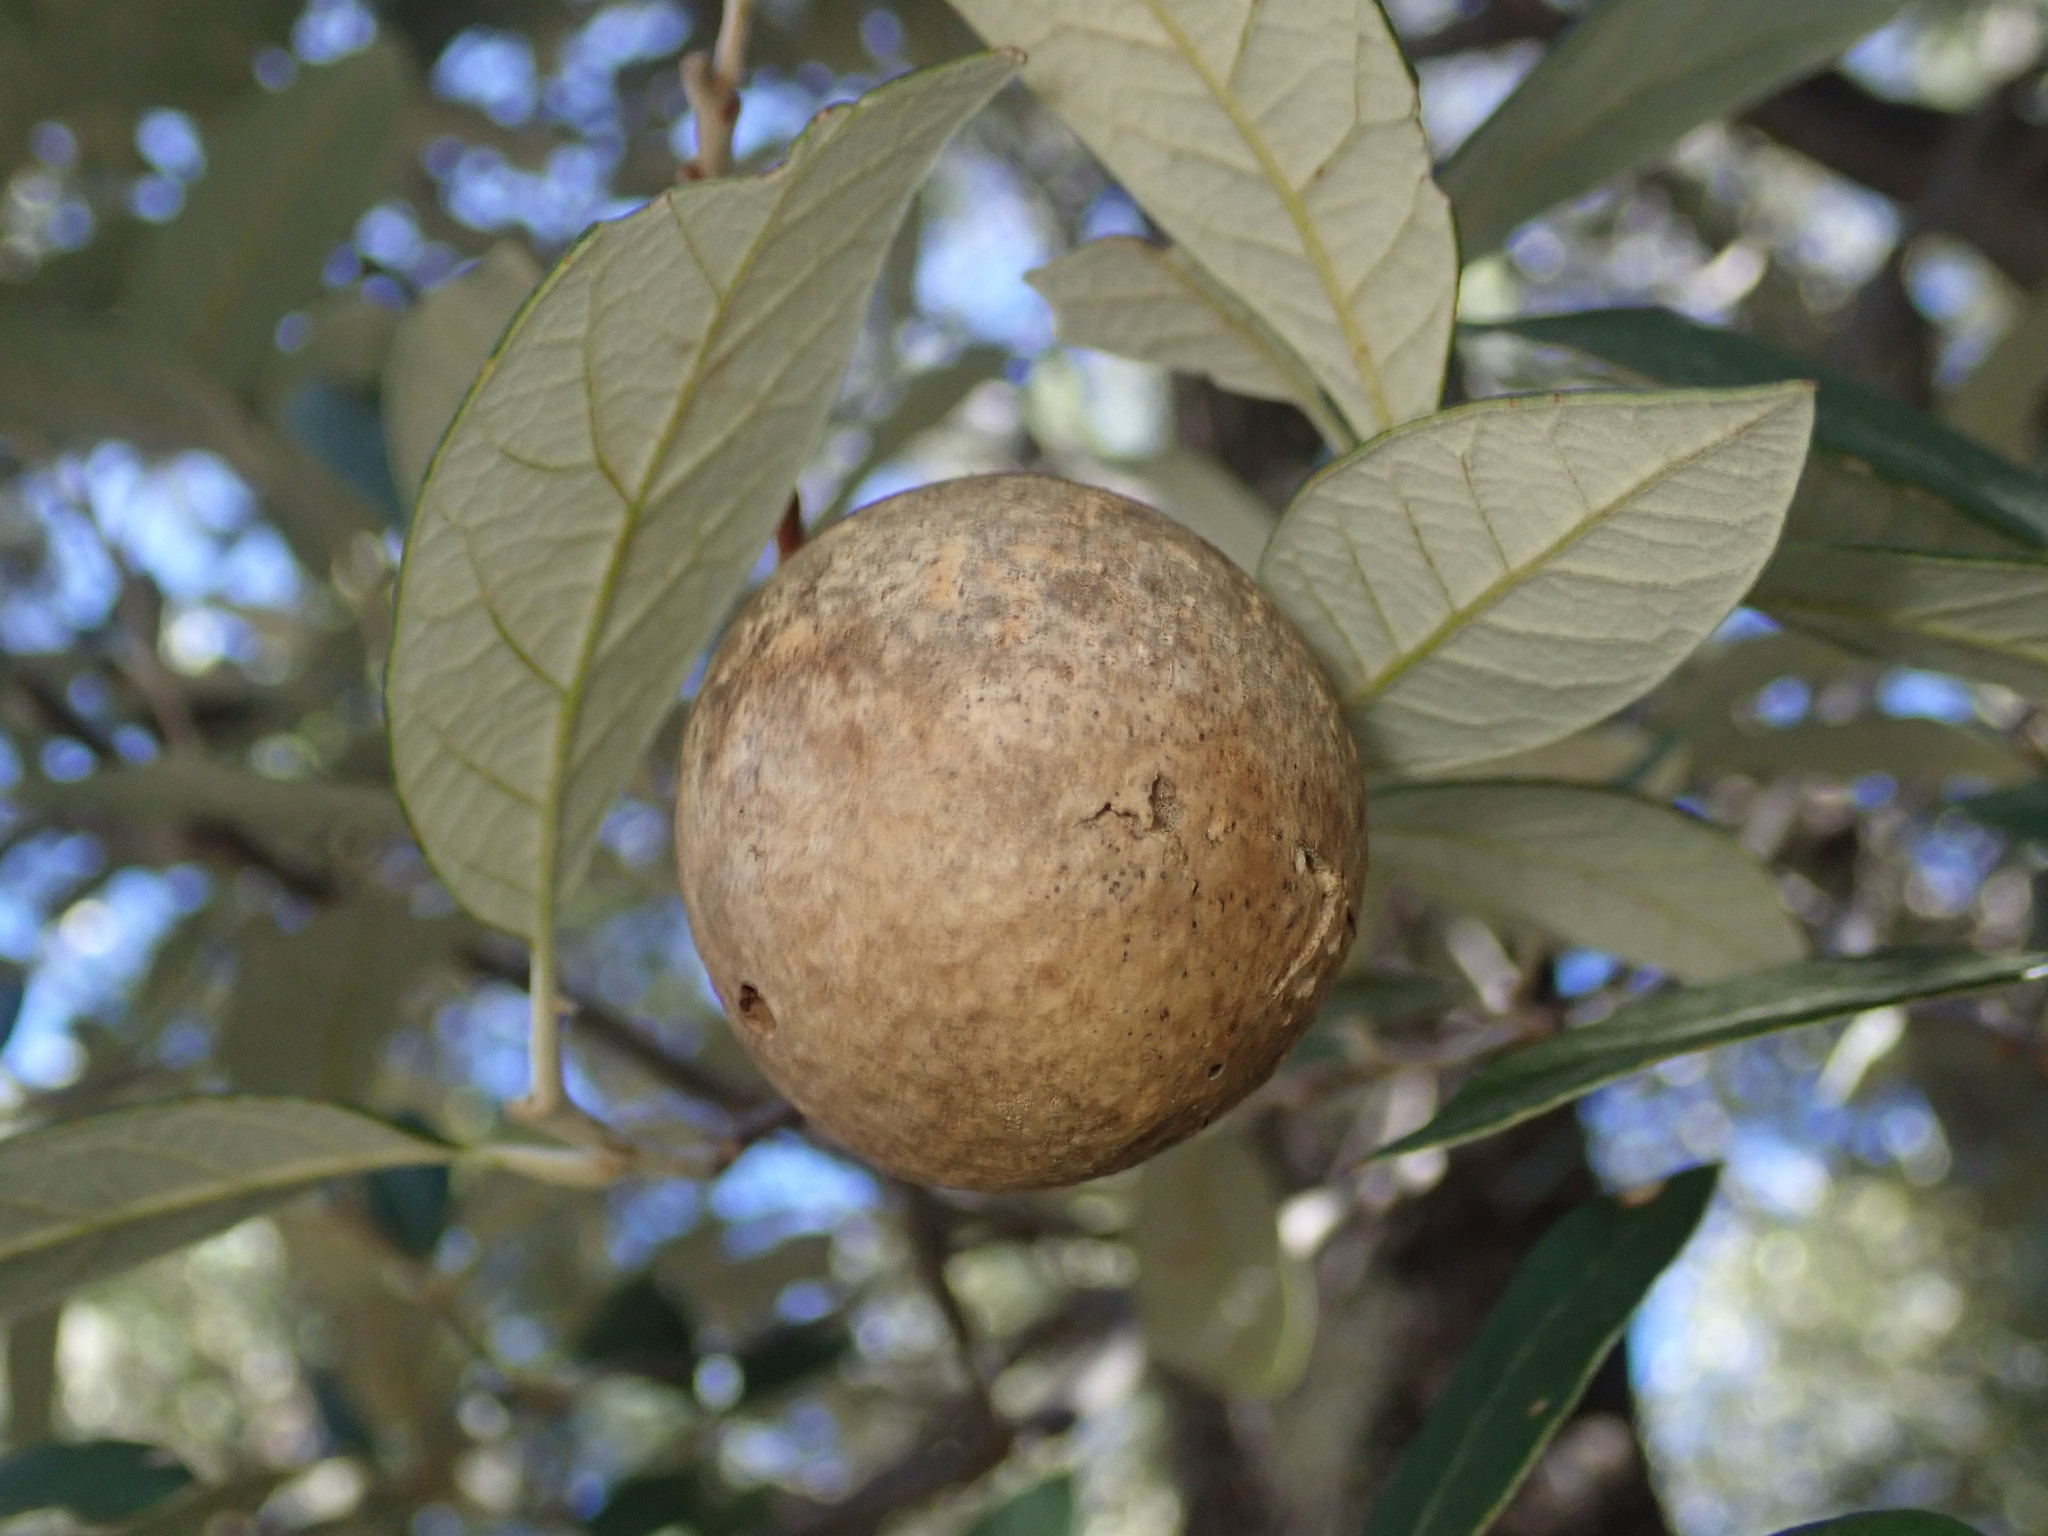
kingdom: Animalia
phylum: Arthropoda
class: Insecta
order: Hymenoptera
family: Cynipidae
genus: Amphibolips
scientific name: Amphibolips
